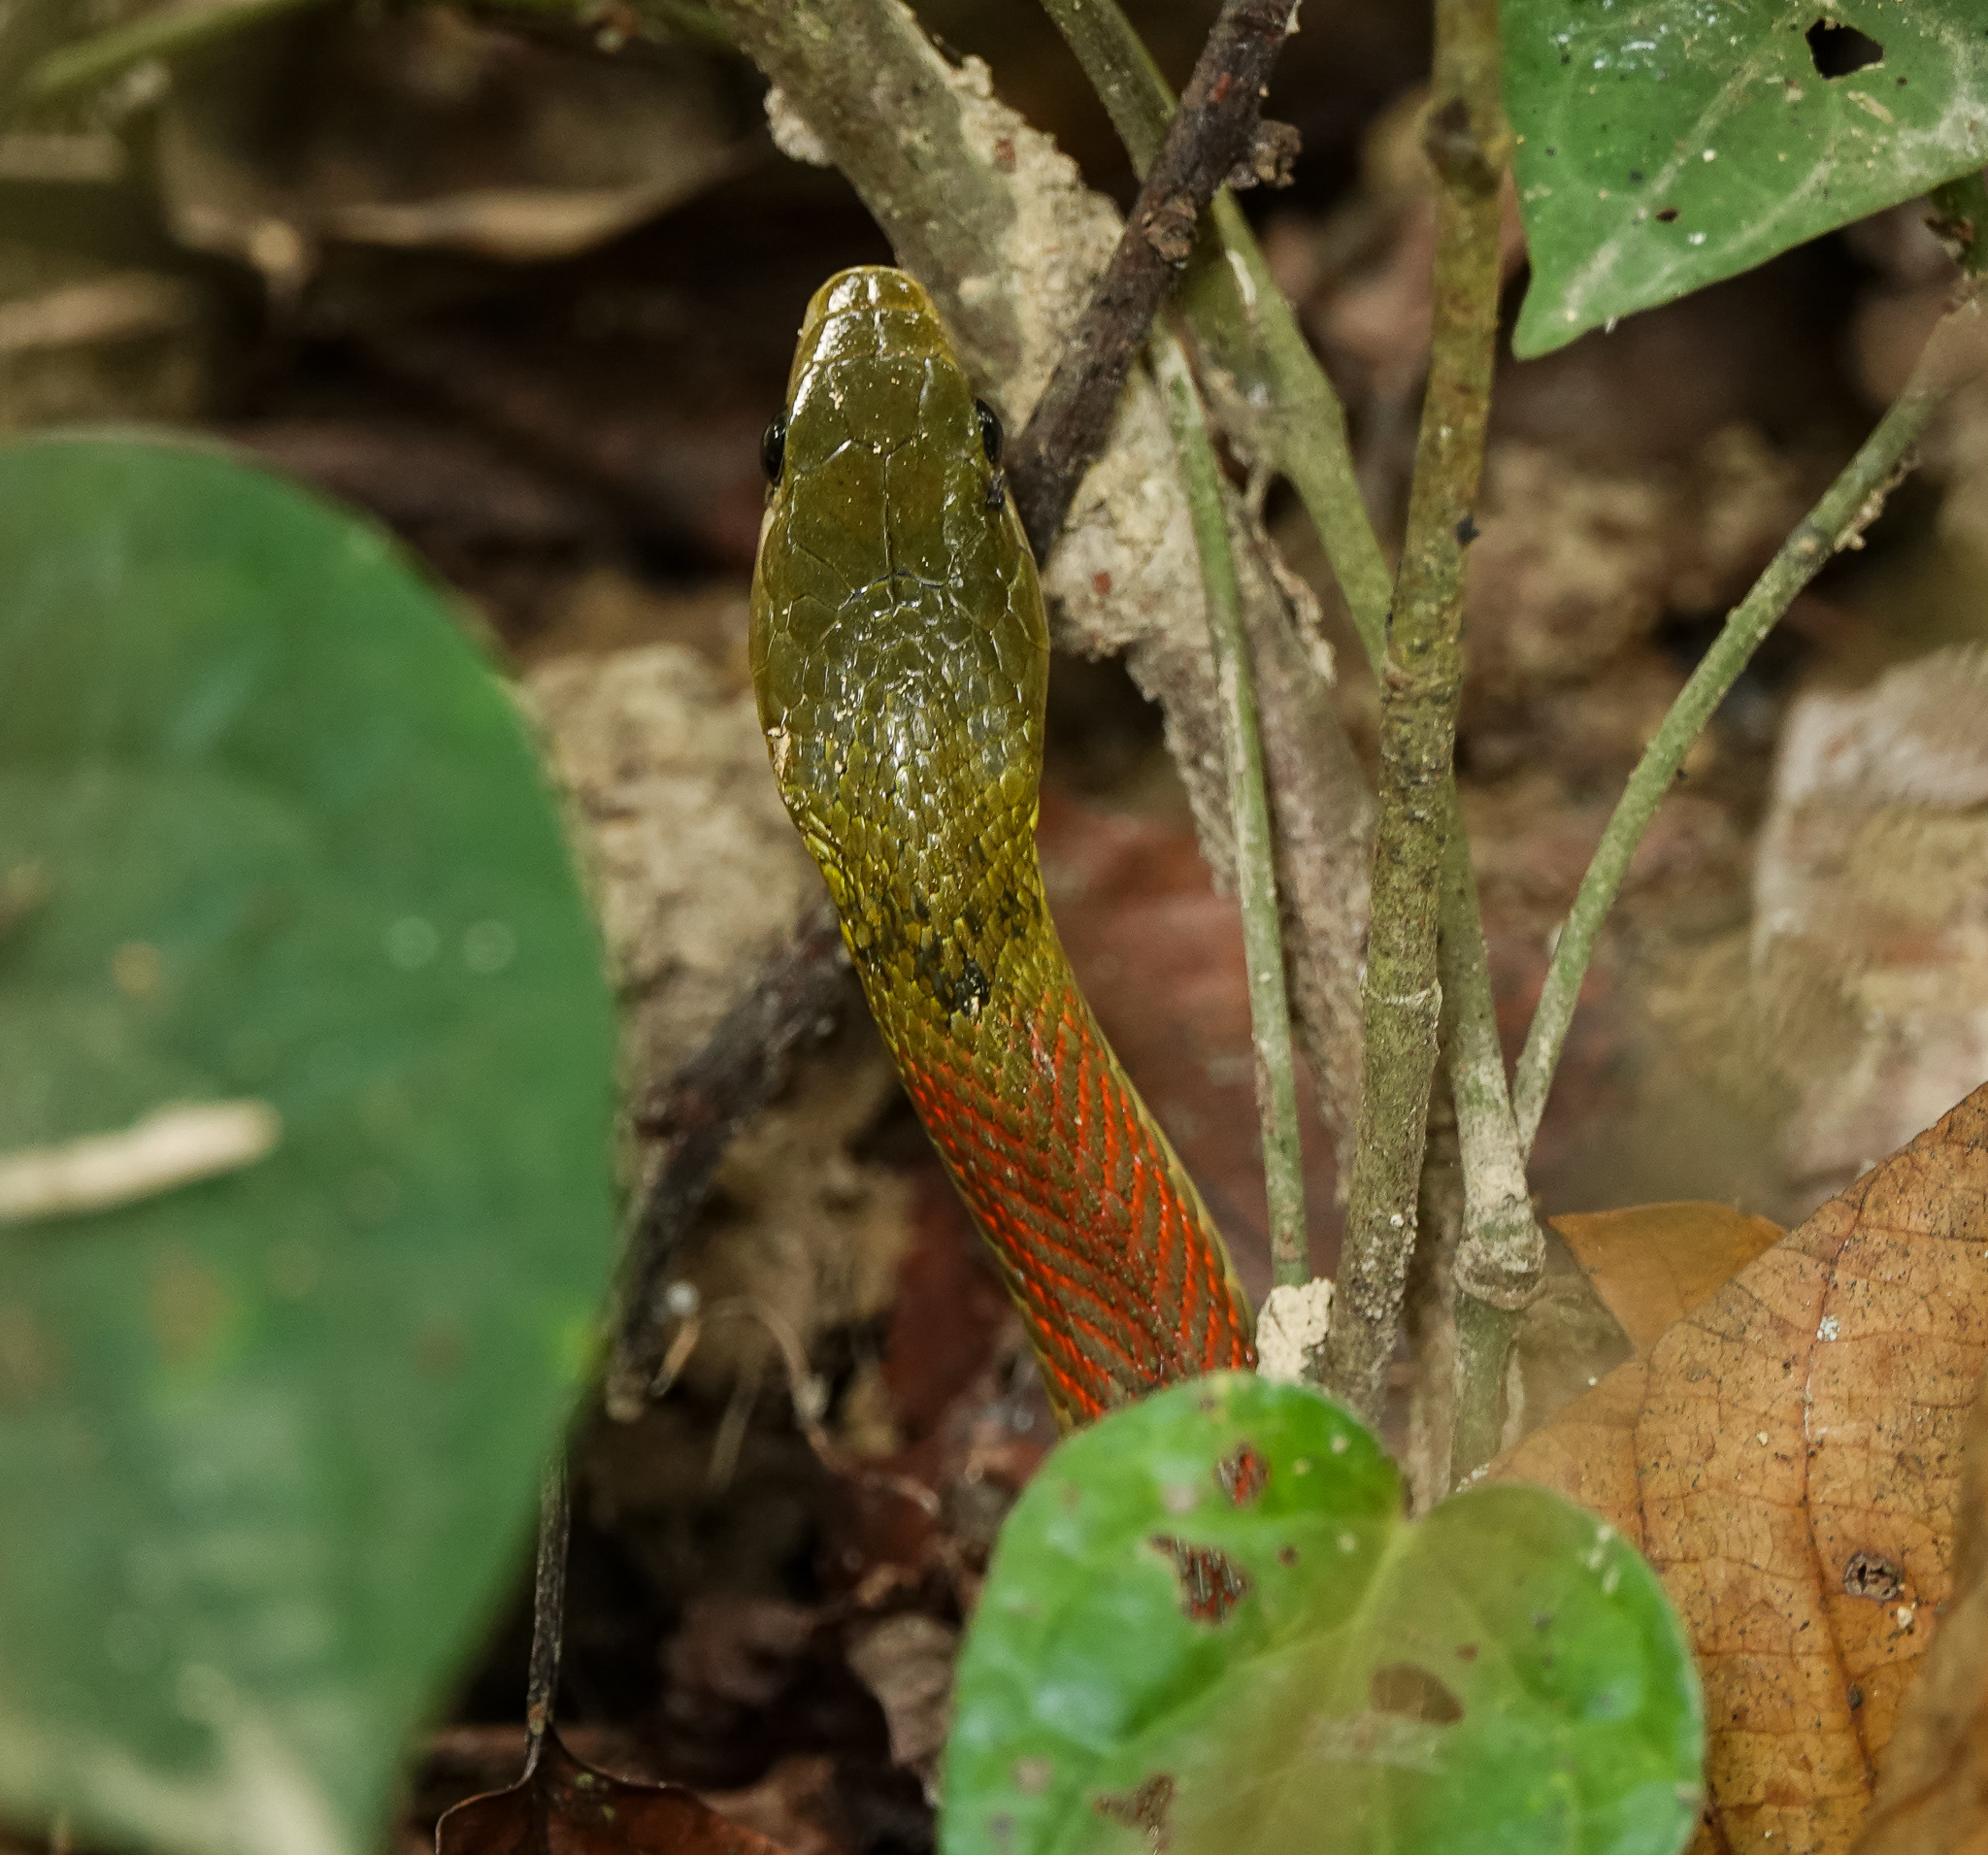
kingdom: Animalia
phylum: Chordata
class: Squamata
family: Colubridae
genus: Rhabdophis
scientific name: Rhabdophis helleri
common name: Heller’s red-necked keelback
